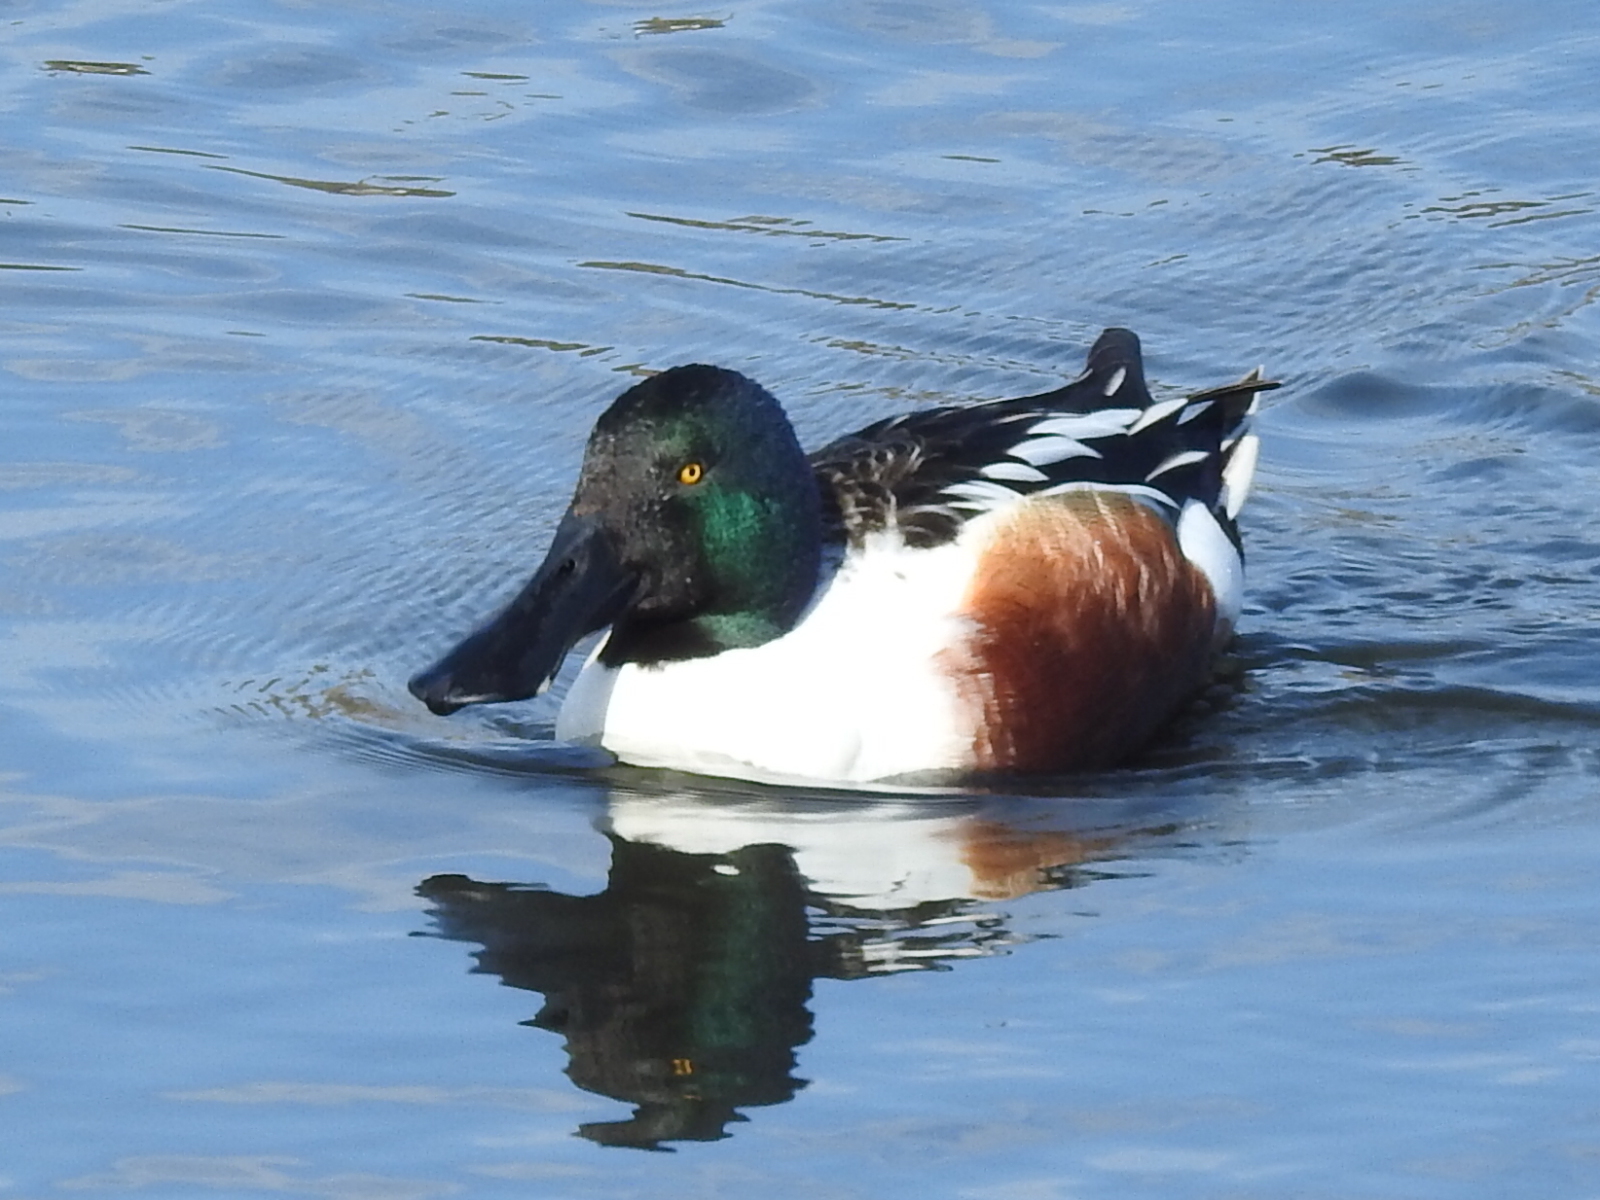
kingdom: Animalia
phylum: Chordata
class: Aves
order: Anseriformes
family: Anatidae
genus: Spatula
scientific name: Spatula clypeata
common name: Northern shoveler
